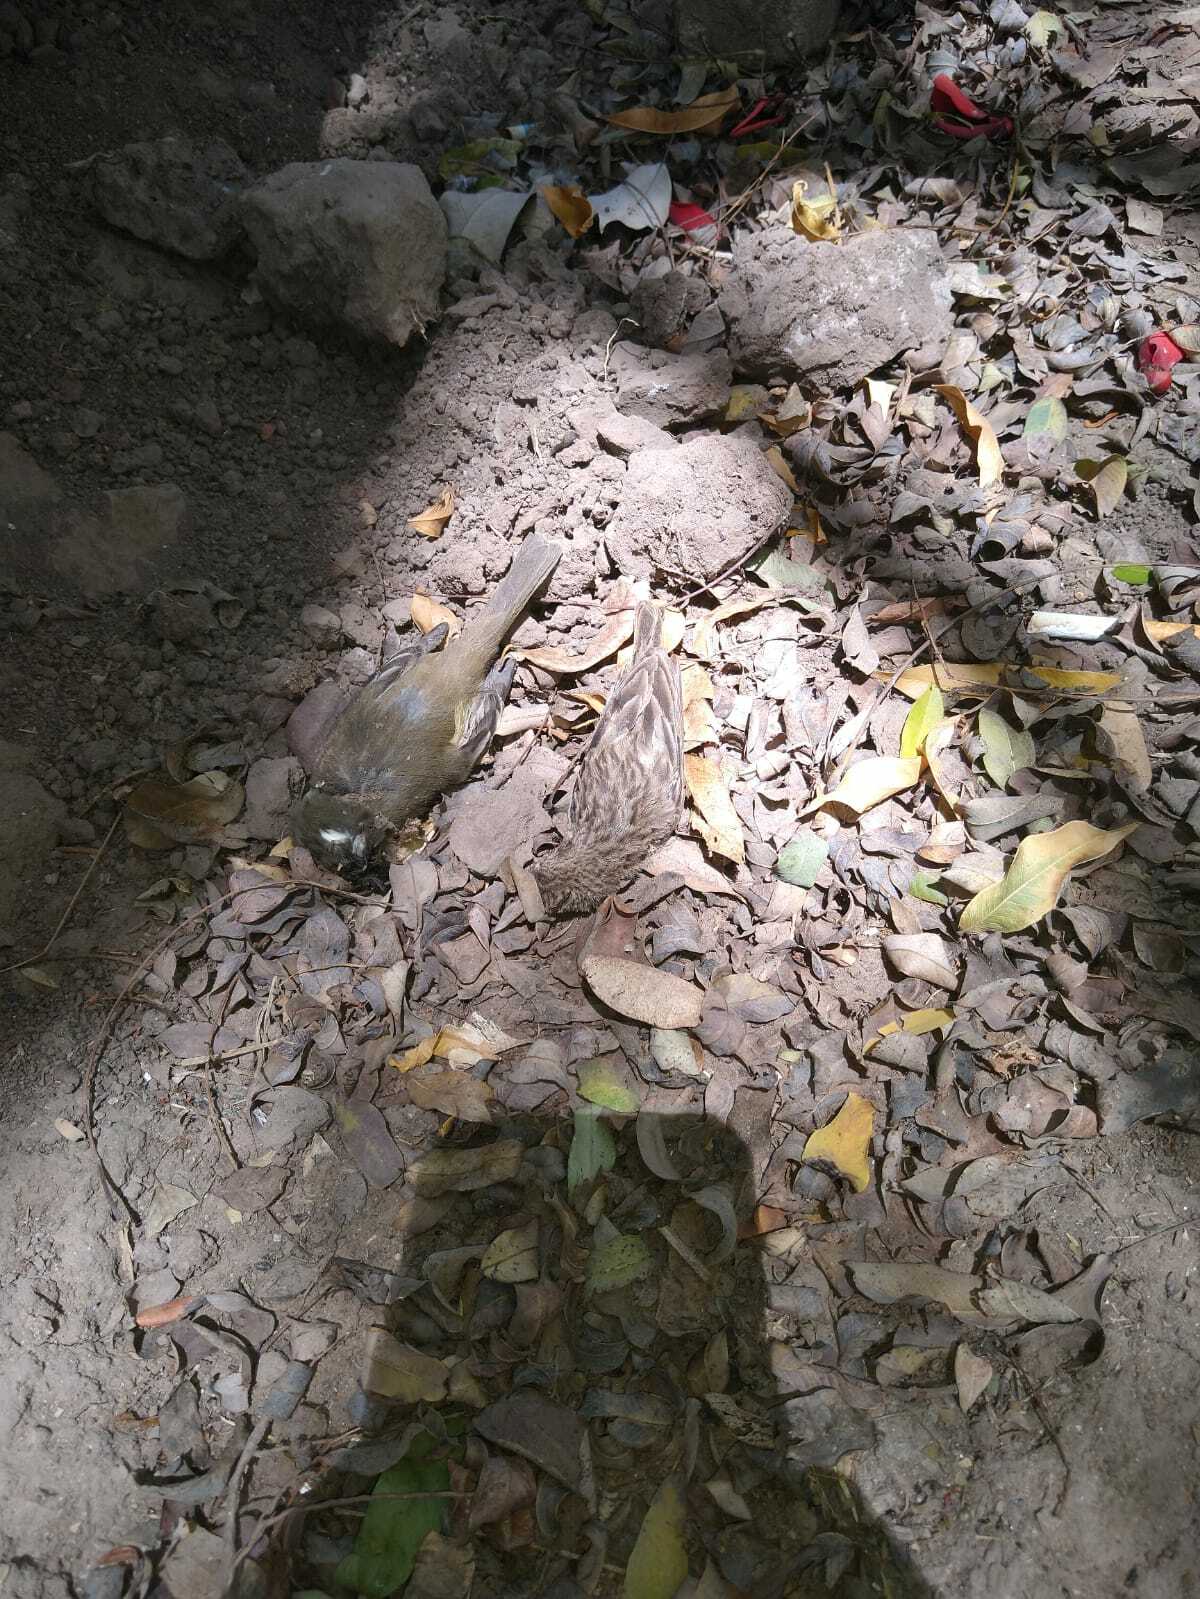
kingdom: Animalia
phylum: Chordata
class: Aves
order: Passeriformes
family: Thraupidae
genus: Sicalis
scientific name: Sicalis flaveola
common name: Saffron finch
